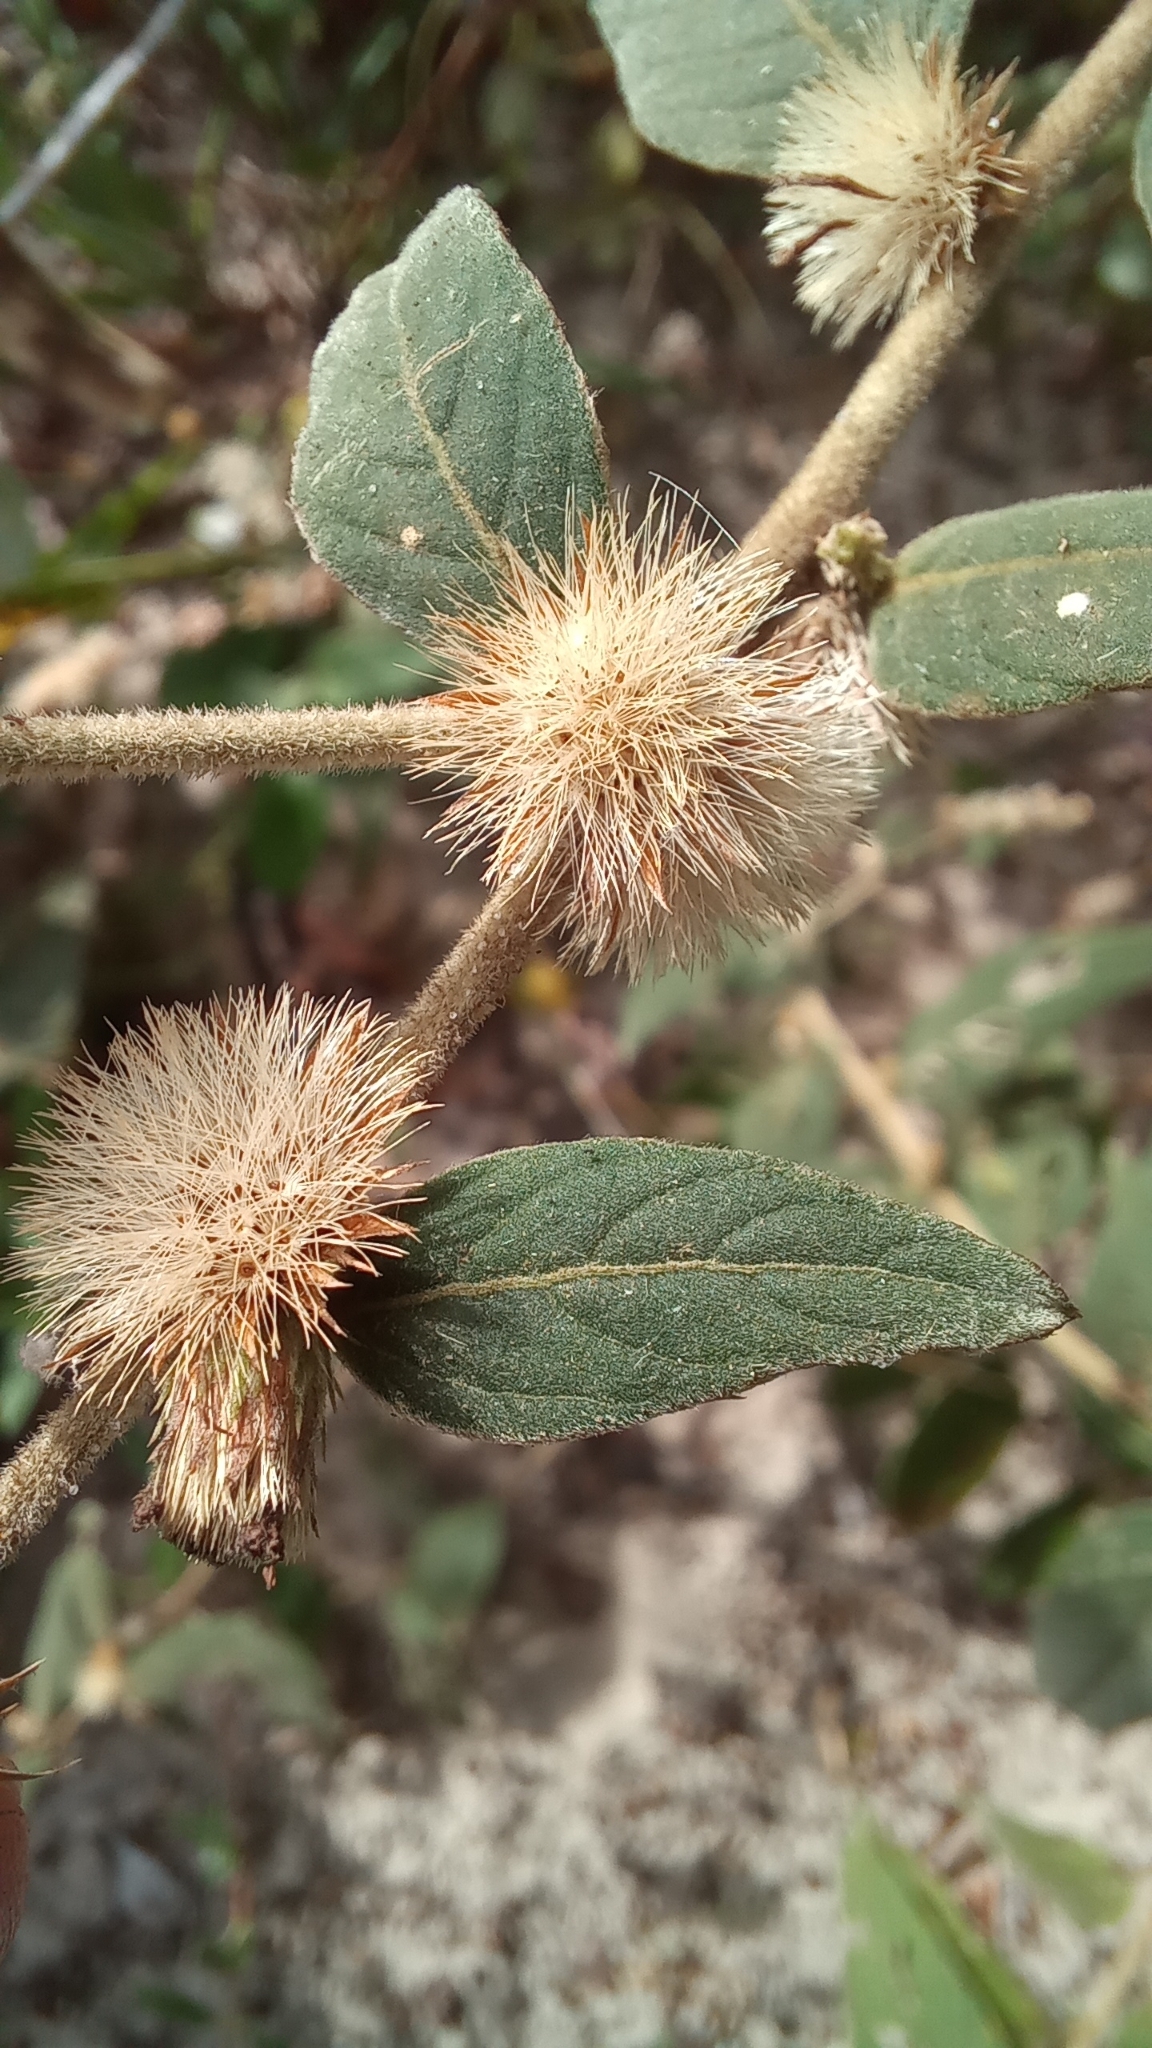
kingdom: Plantae
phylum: Tracheophyta
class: Magnoliopsida
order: Asterales
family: Asteraceae
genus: Lepidaploa
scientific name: Lepidaploa chamissonis
